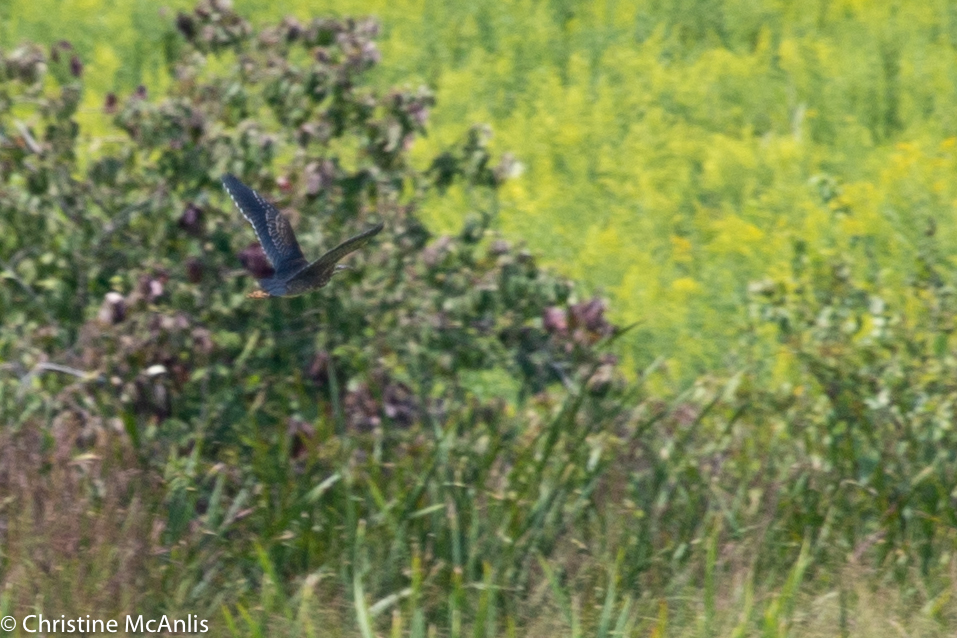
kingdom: Animalia
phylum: Chordata
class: Aves
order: Pelecaniformes
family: Ardeidae
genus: Butorides
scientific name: Butorides virescens
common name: Green heron
